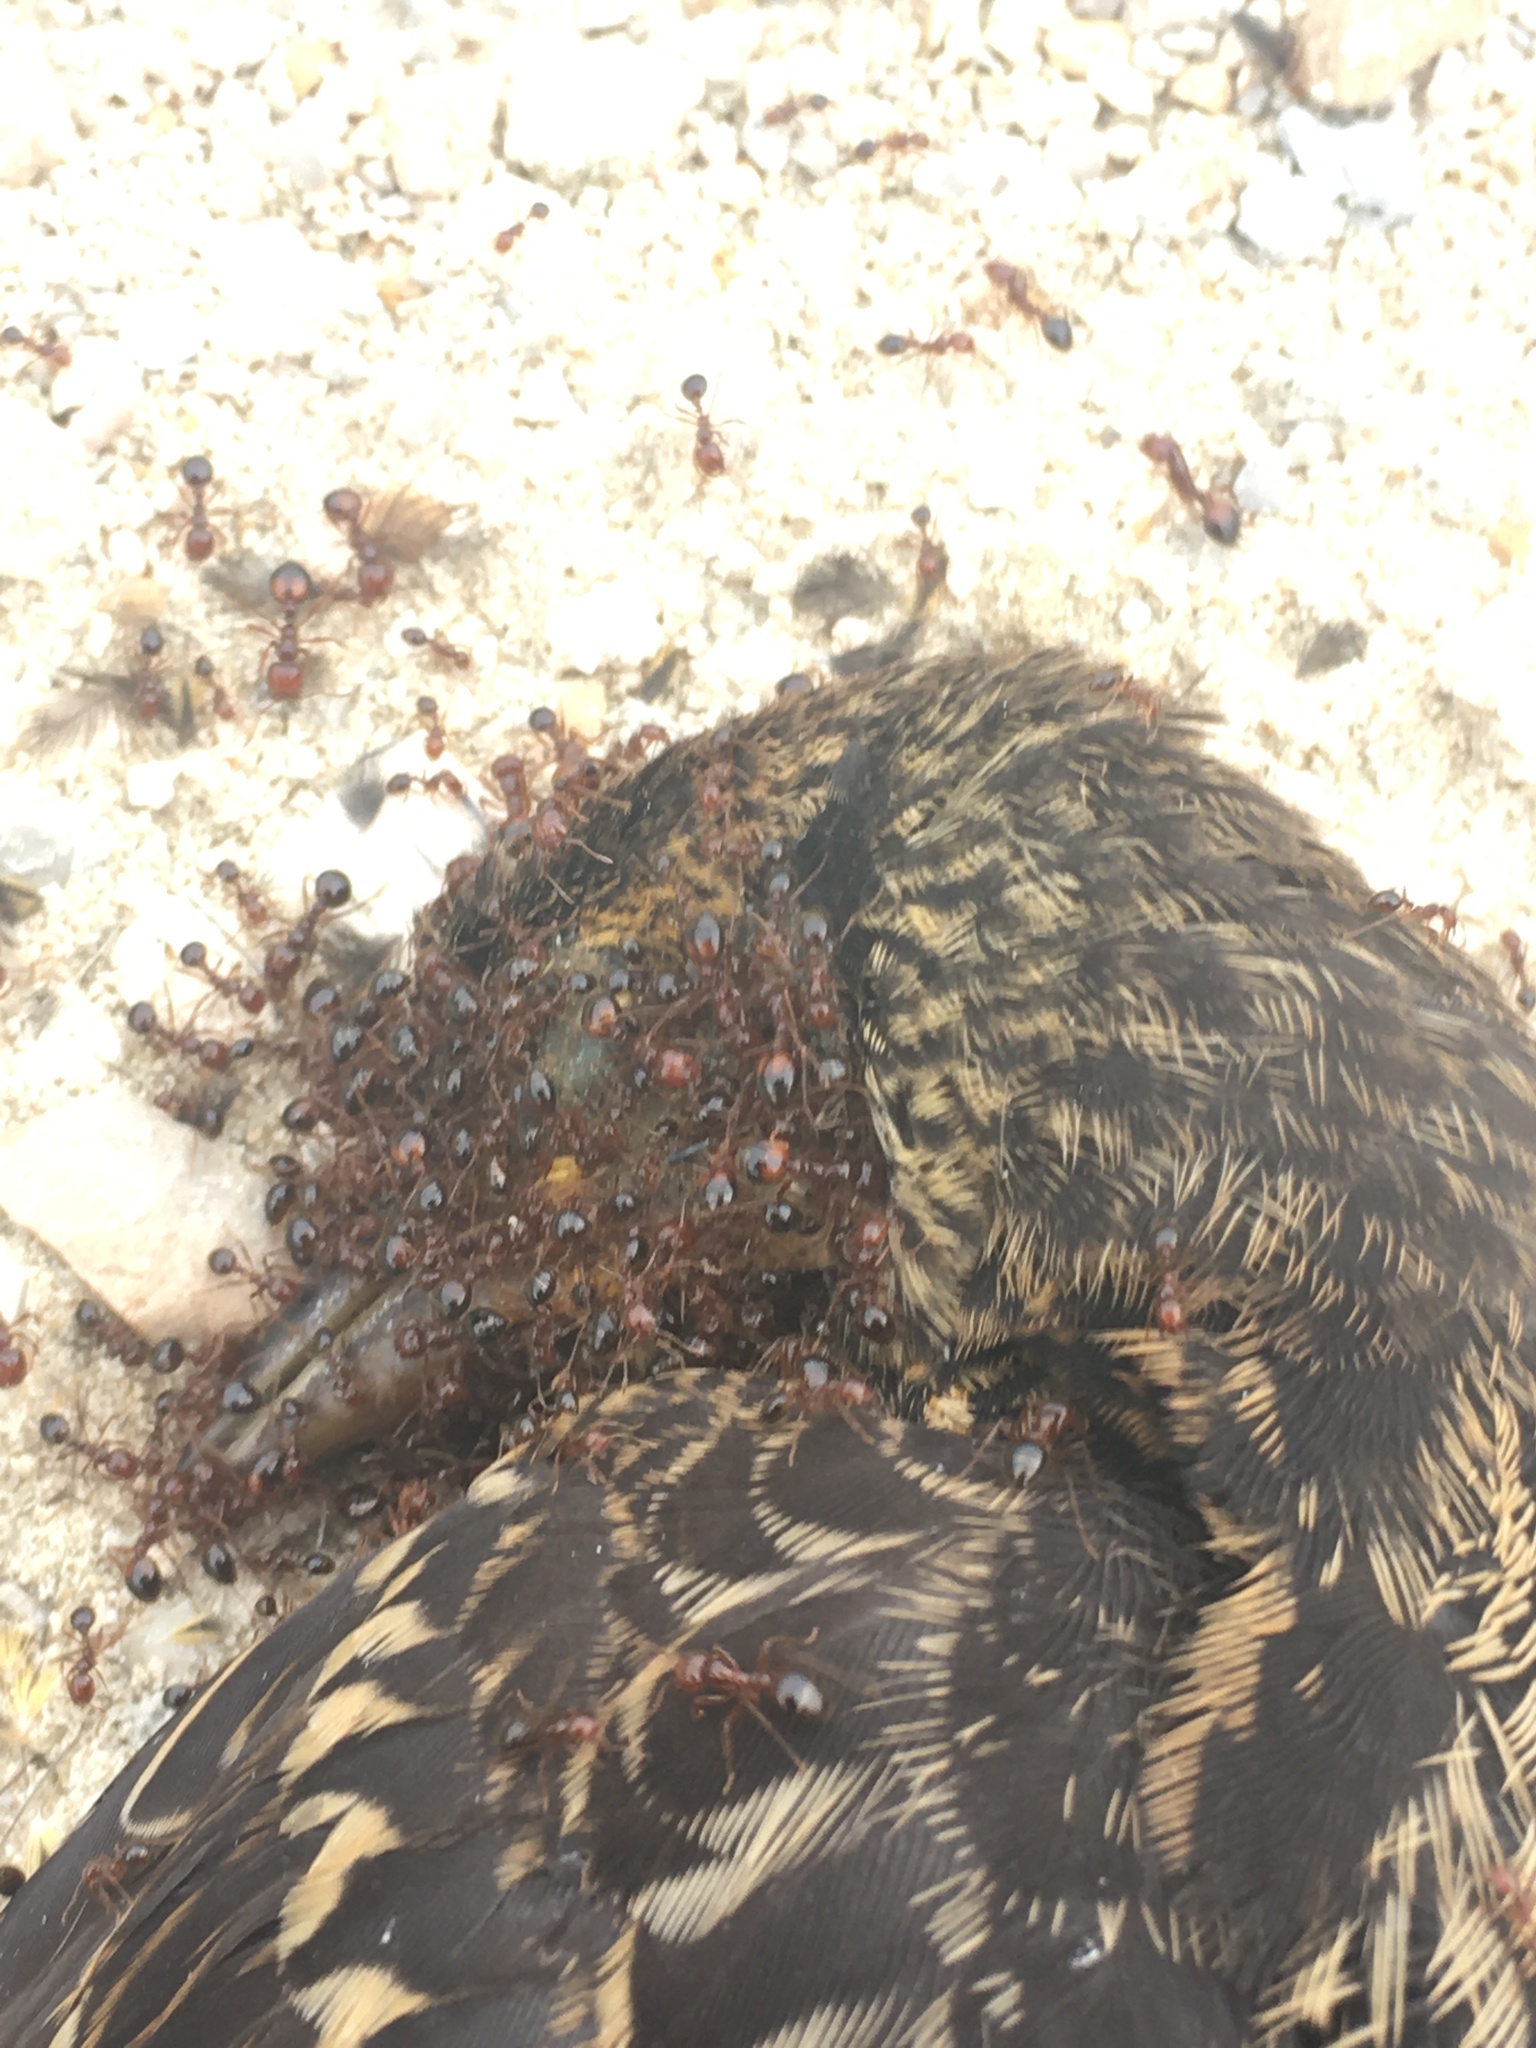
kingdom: Animalia
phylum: Arthropoda
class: Insecta
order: Hymenoptera
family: Formicidae
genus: Solenopsis
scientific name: Solenopsis invicta
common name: Red imported fire ant
